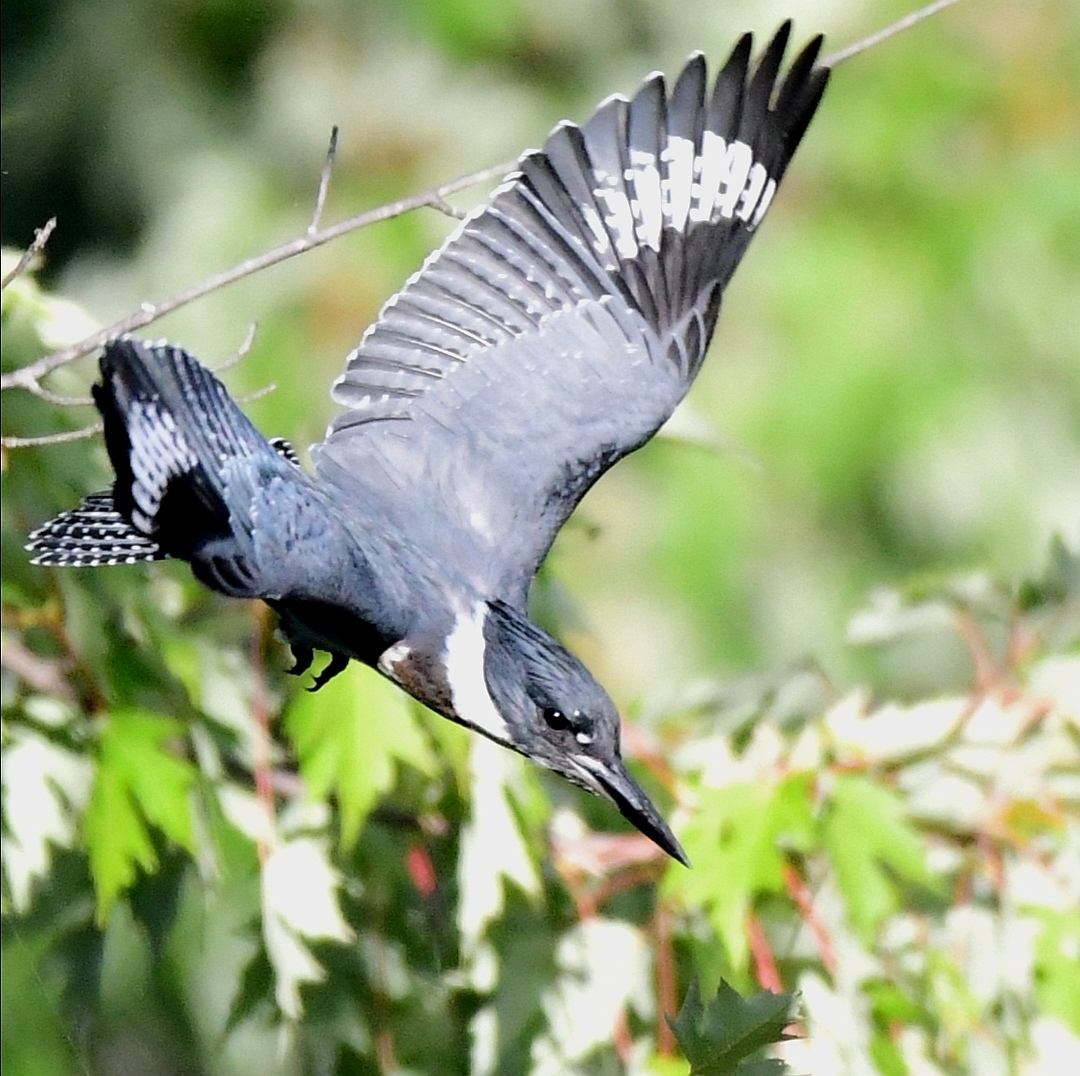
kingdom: Animalia
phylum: Chordata
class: Aves
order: Coraciiformes
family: Alcedinidae
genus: Megaceryle
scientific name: Megaceryle alcyon
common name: Belted kingfisher
